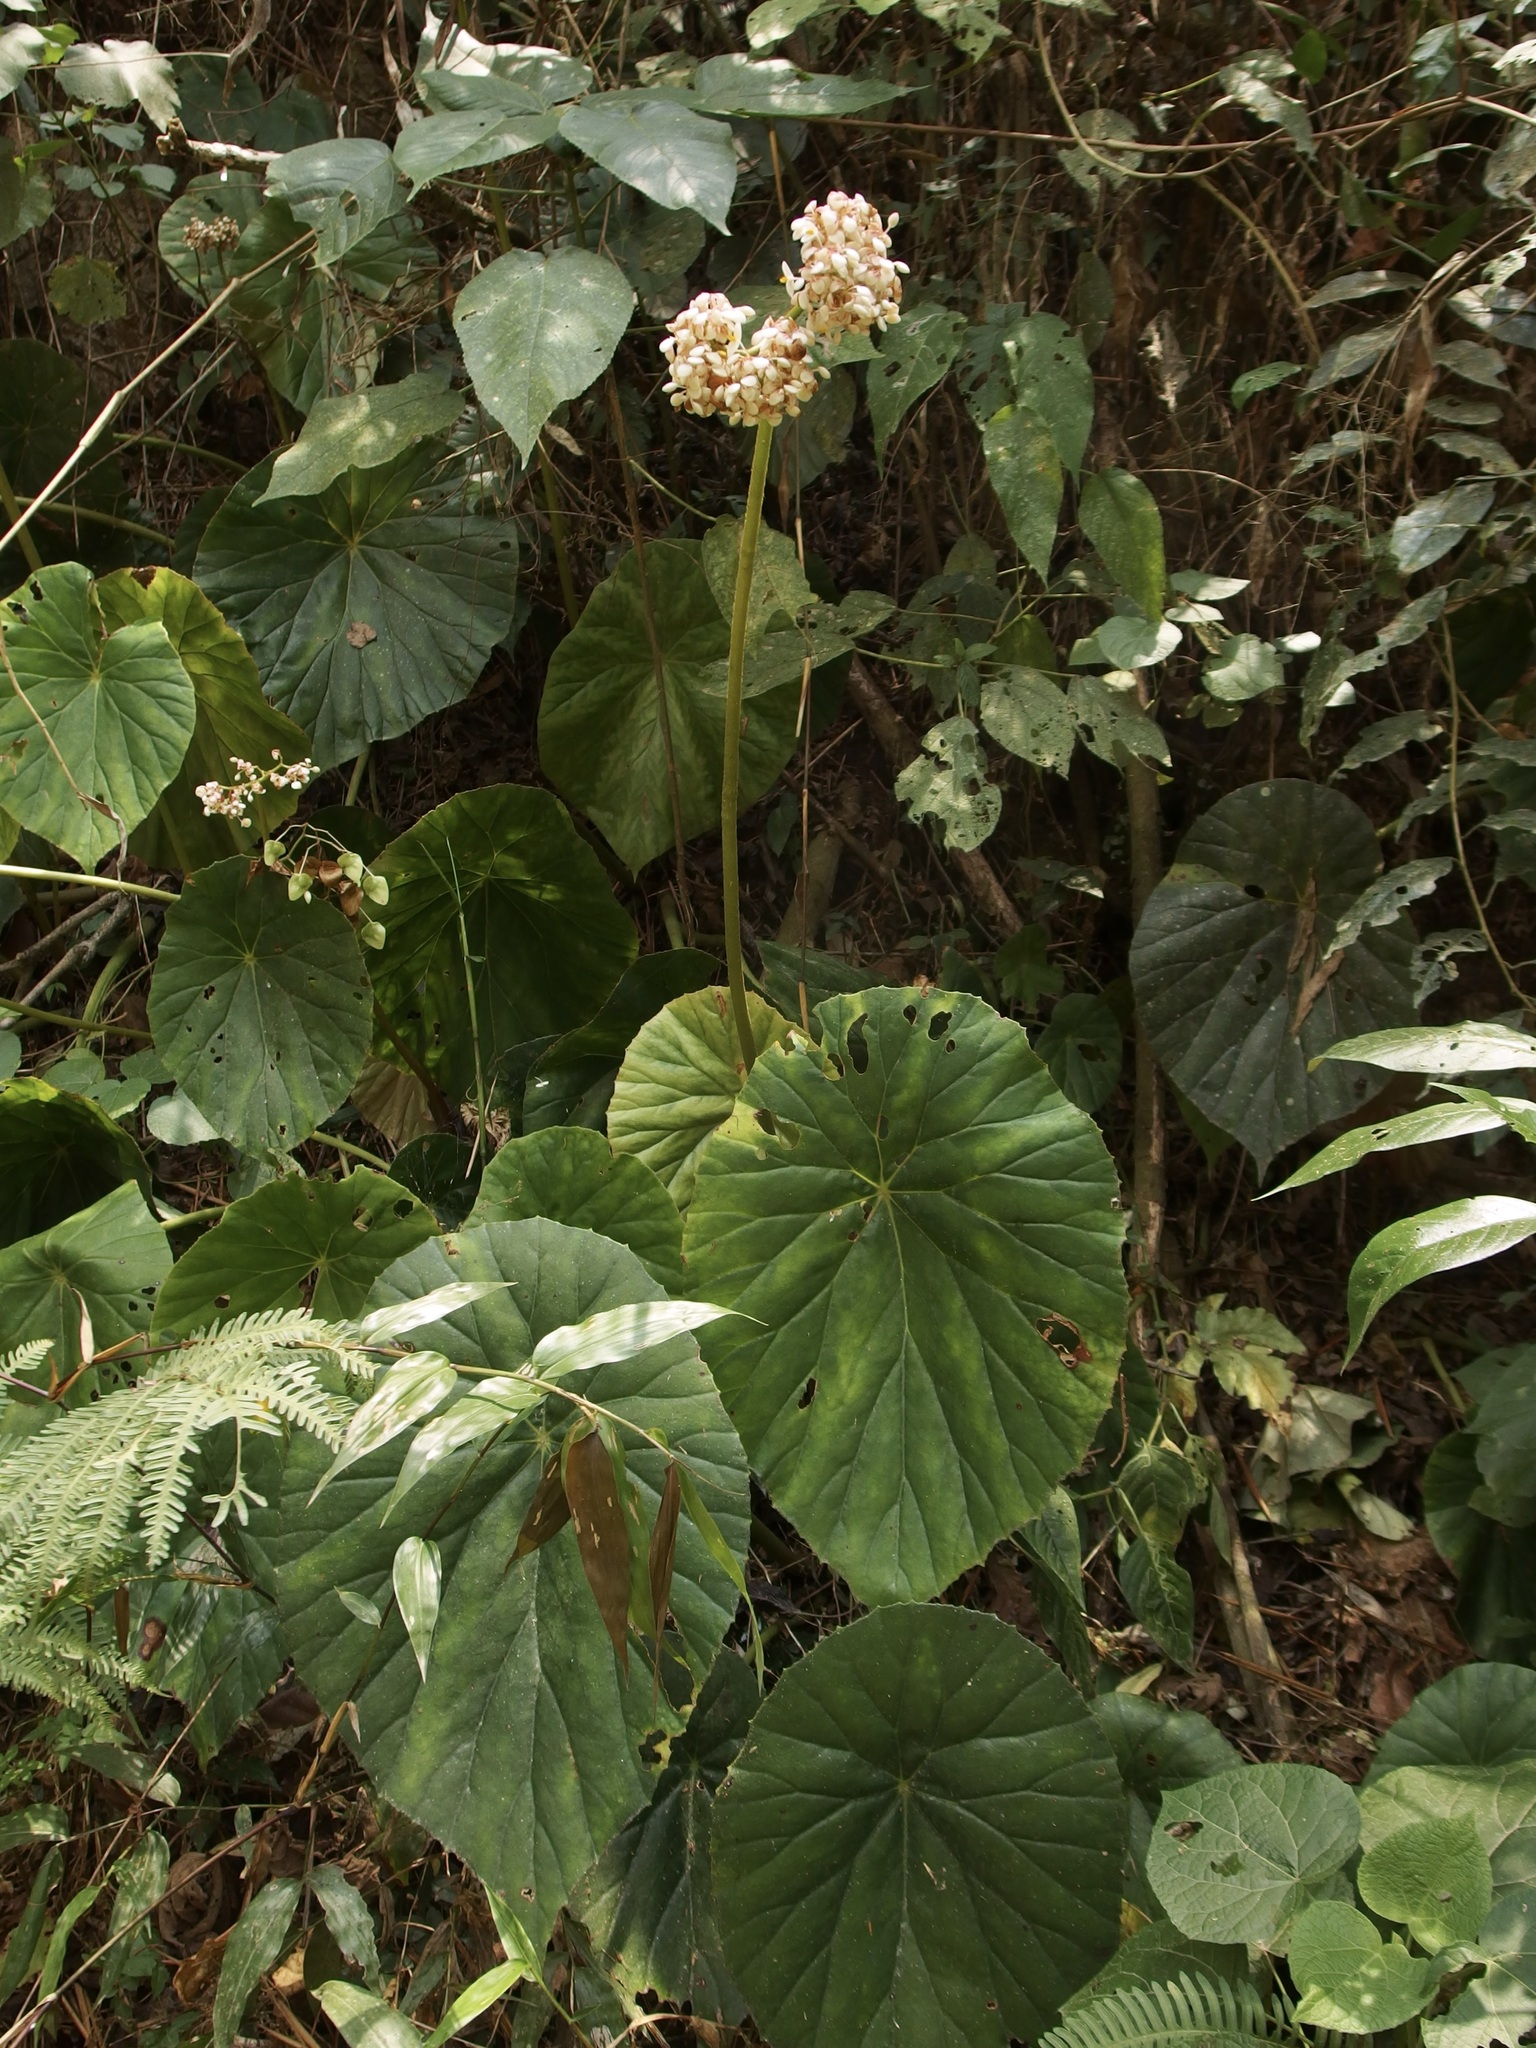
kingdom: Plantae
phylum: Tracheophyta
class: Magnoliopsida
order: Cucurbitales
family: Begoniaceae
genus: Begonia
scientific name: Begonia nelumbiifolia
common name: Lilypad begonia
